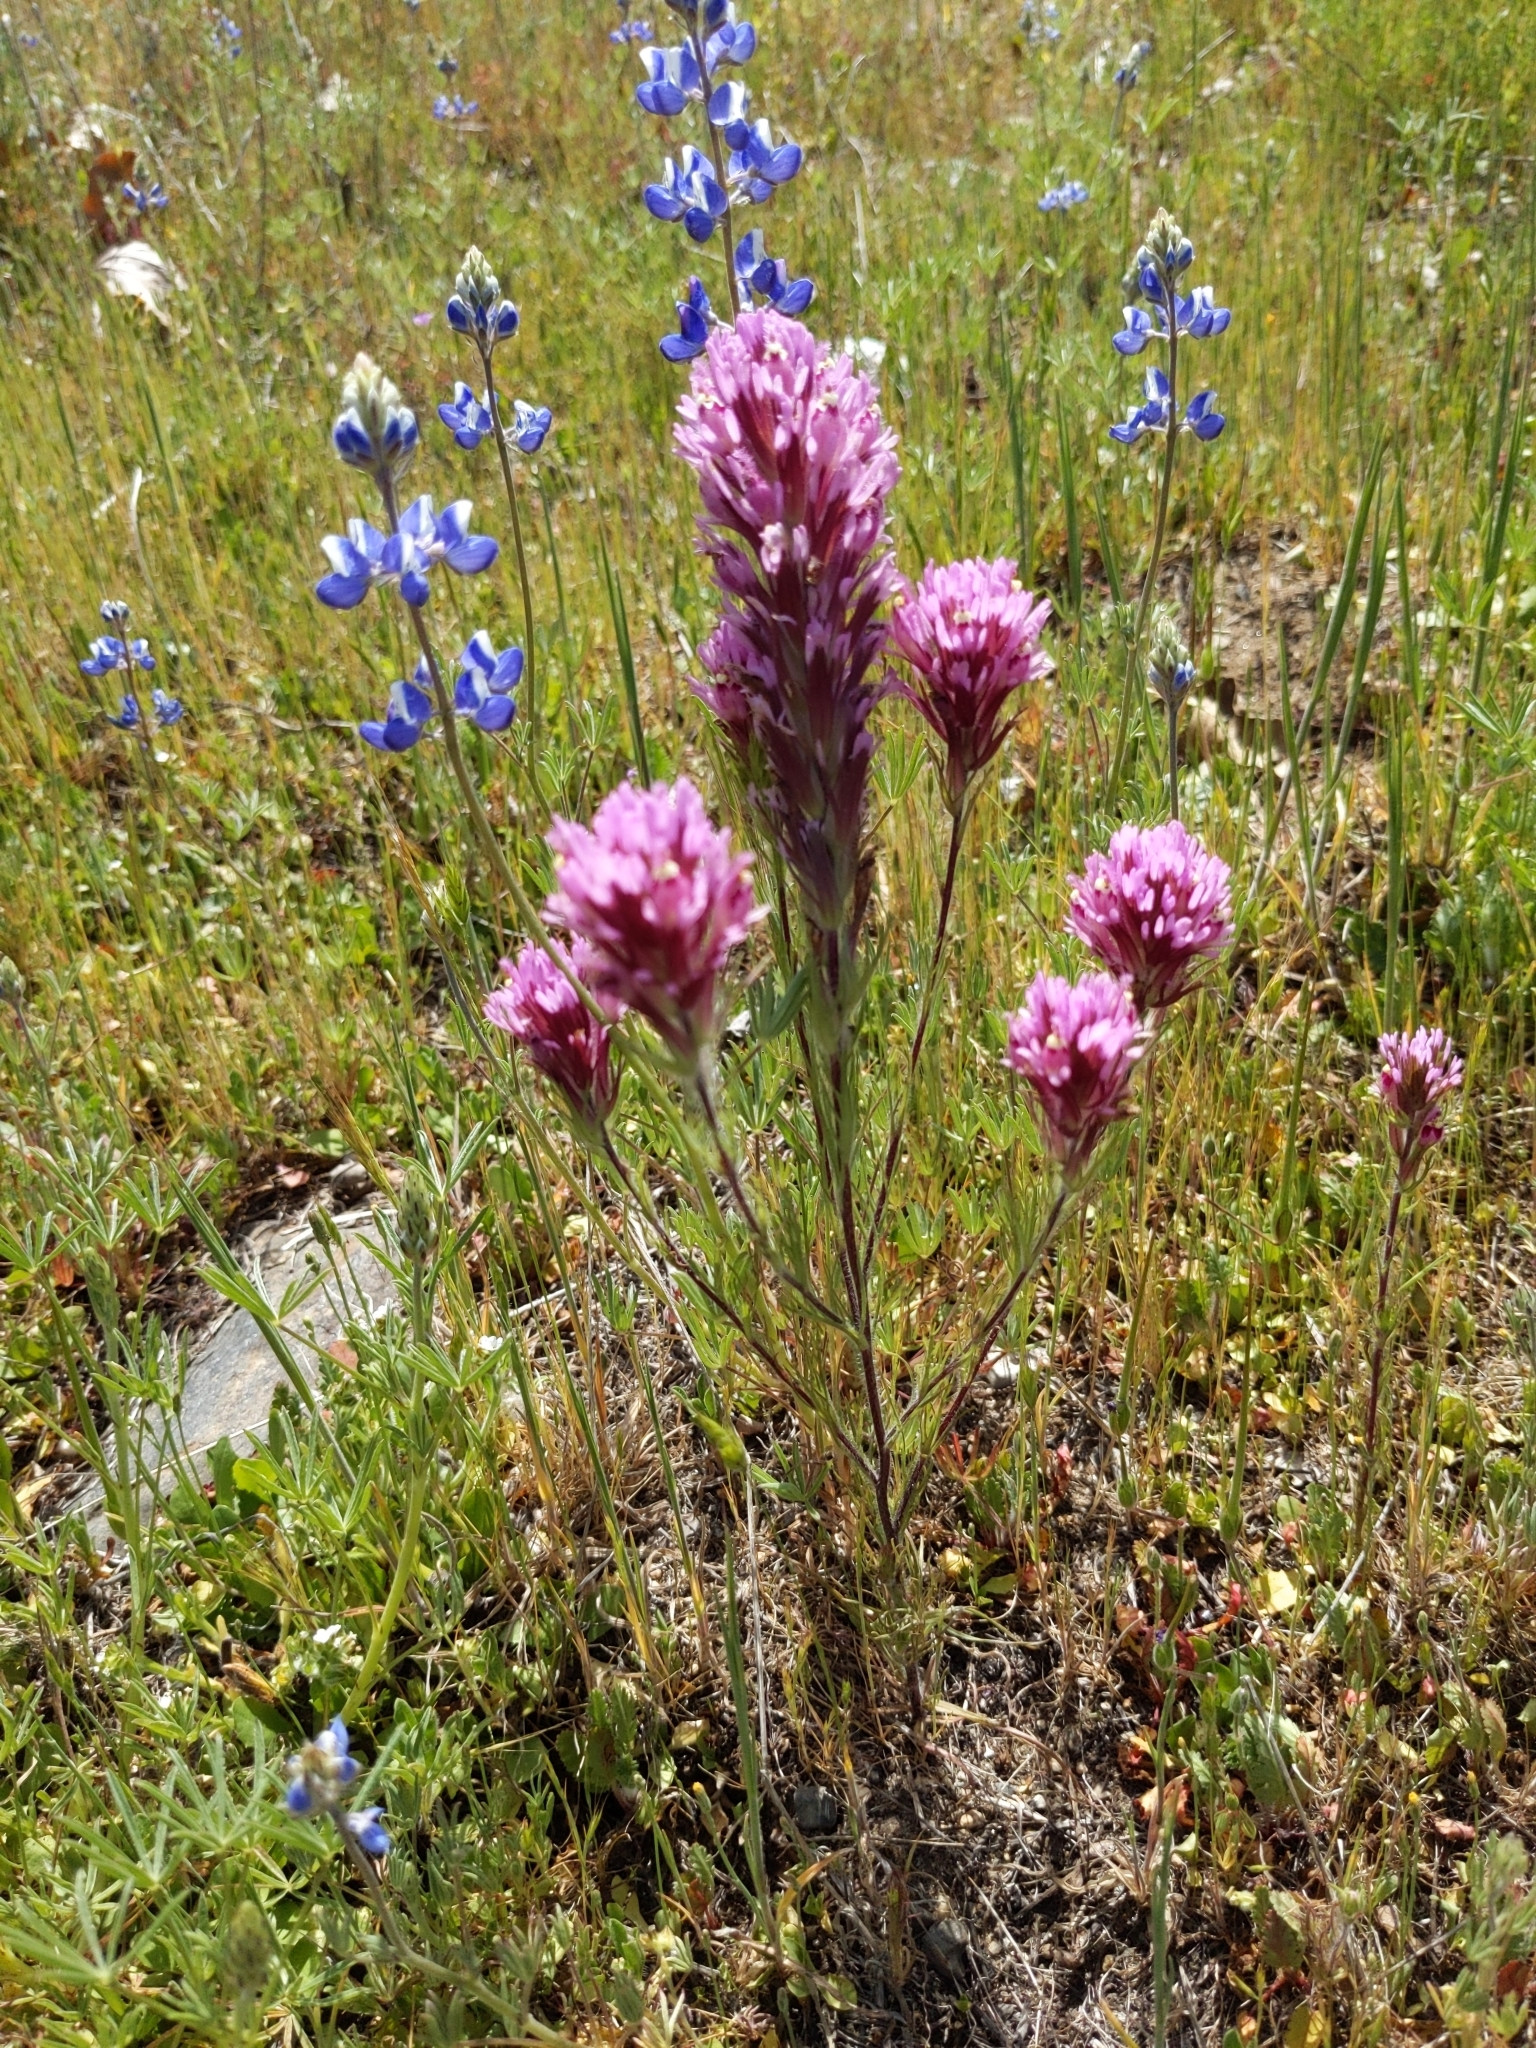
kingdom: Plantae
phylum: Tracheophyta
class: Magnoliopsida
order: Lamiales
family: Orobanchaceae
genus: Castilleja
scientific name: Castilleja exserta
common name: Purple owl-clover
